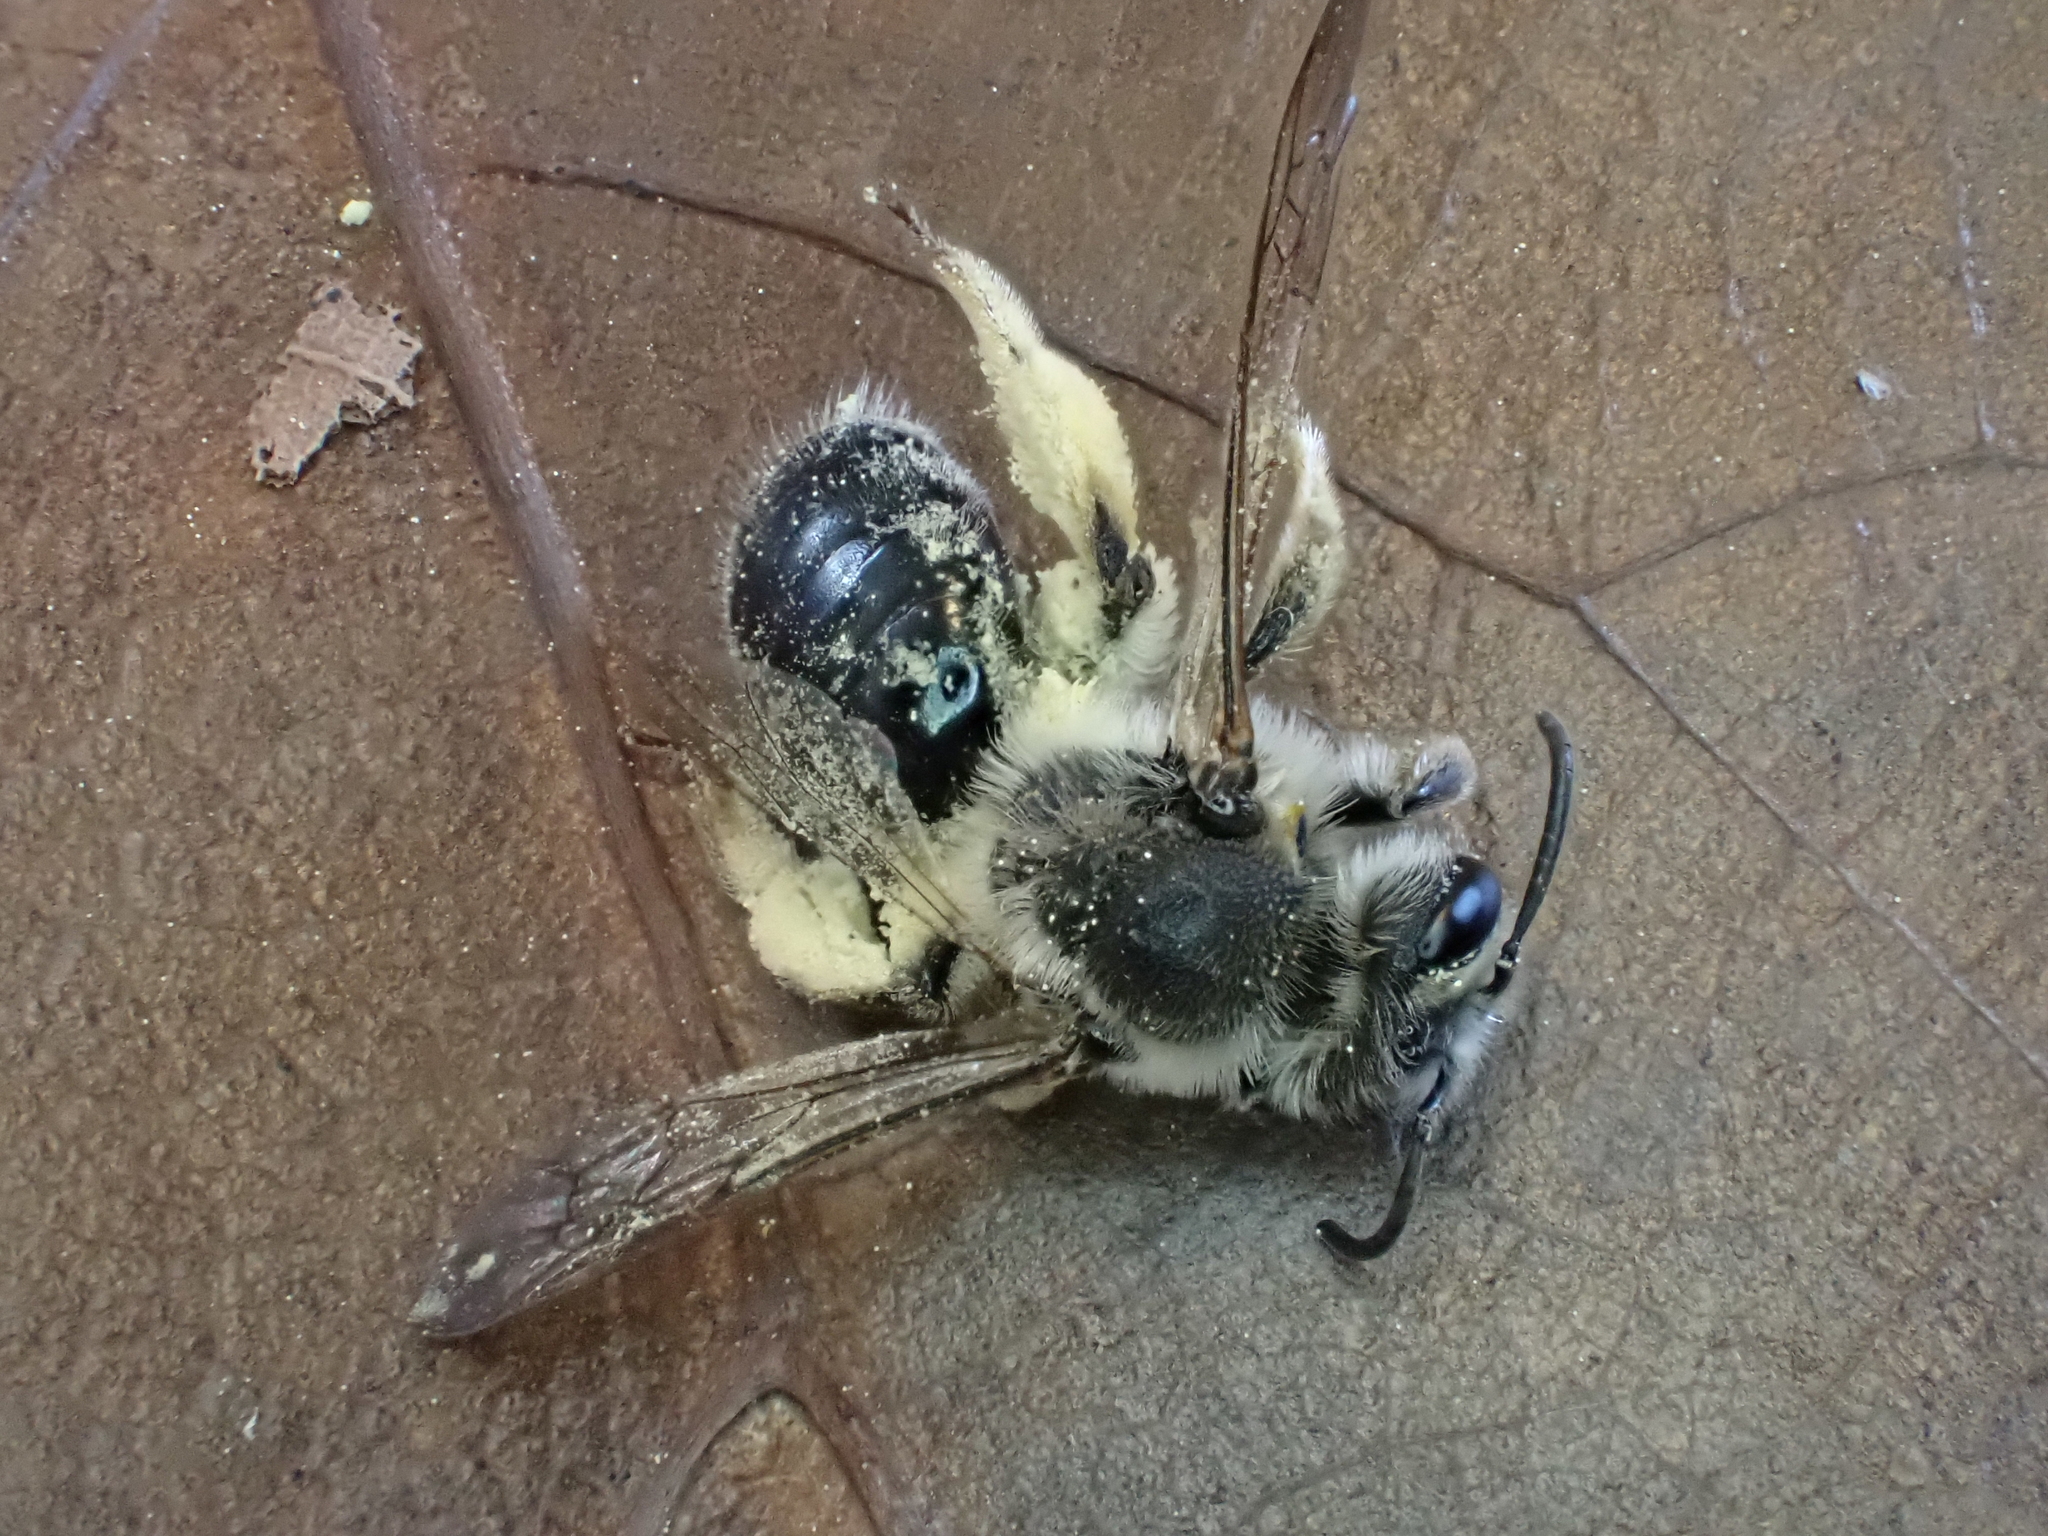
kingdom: Animalia
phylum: Arthropoda
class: Insecta
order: Hymenoptera
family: Andrenidae
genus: Andrena
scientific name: Andrena barbara
